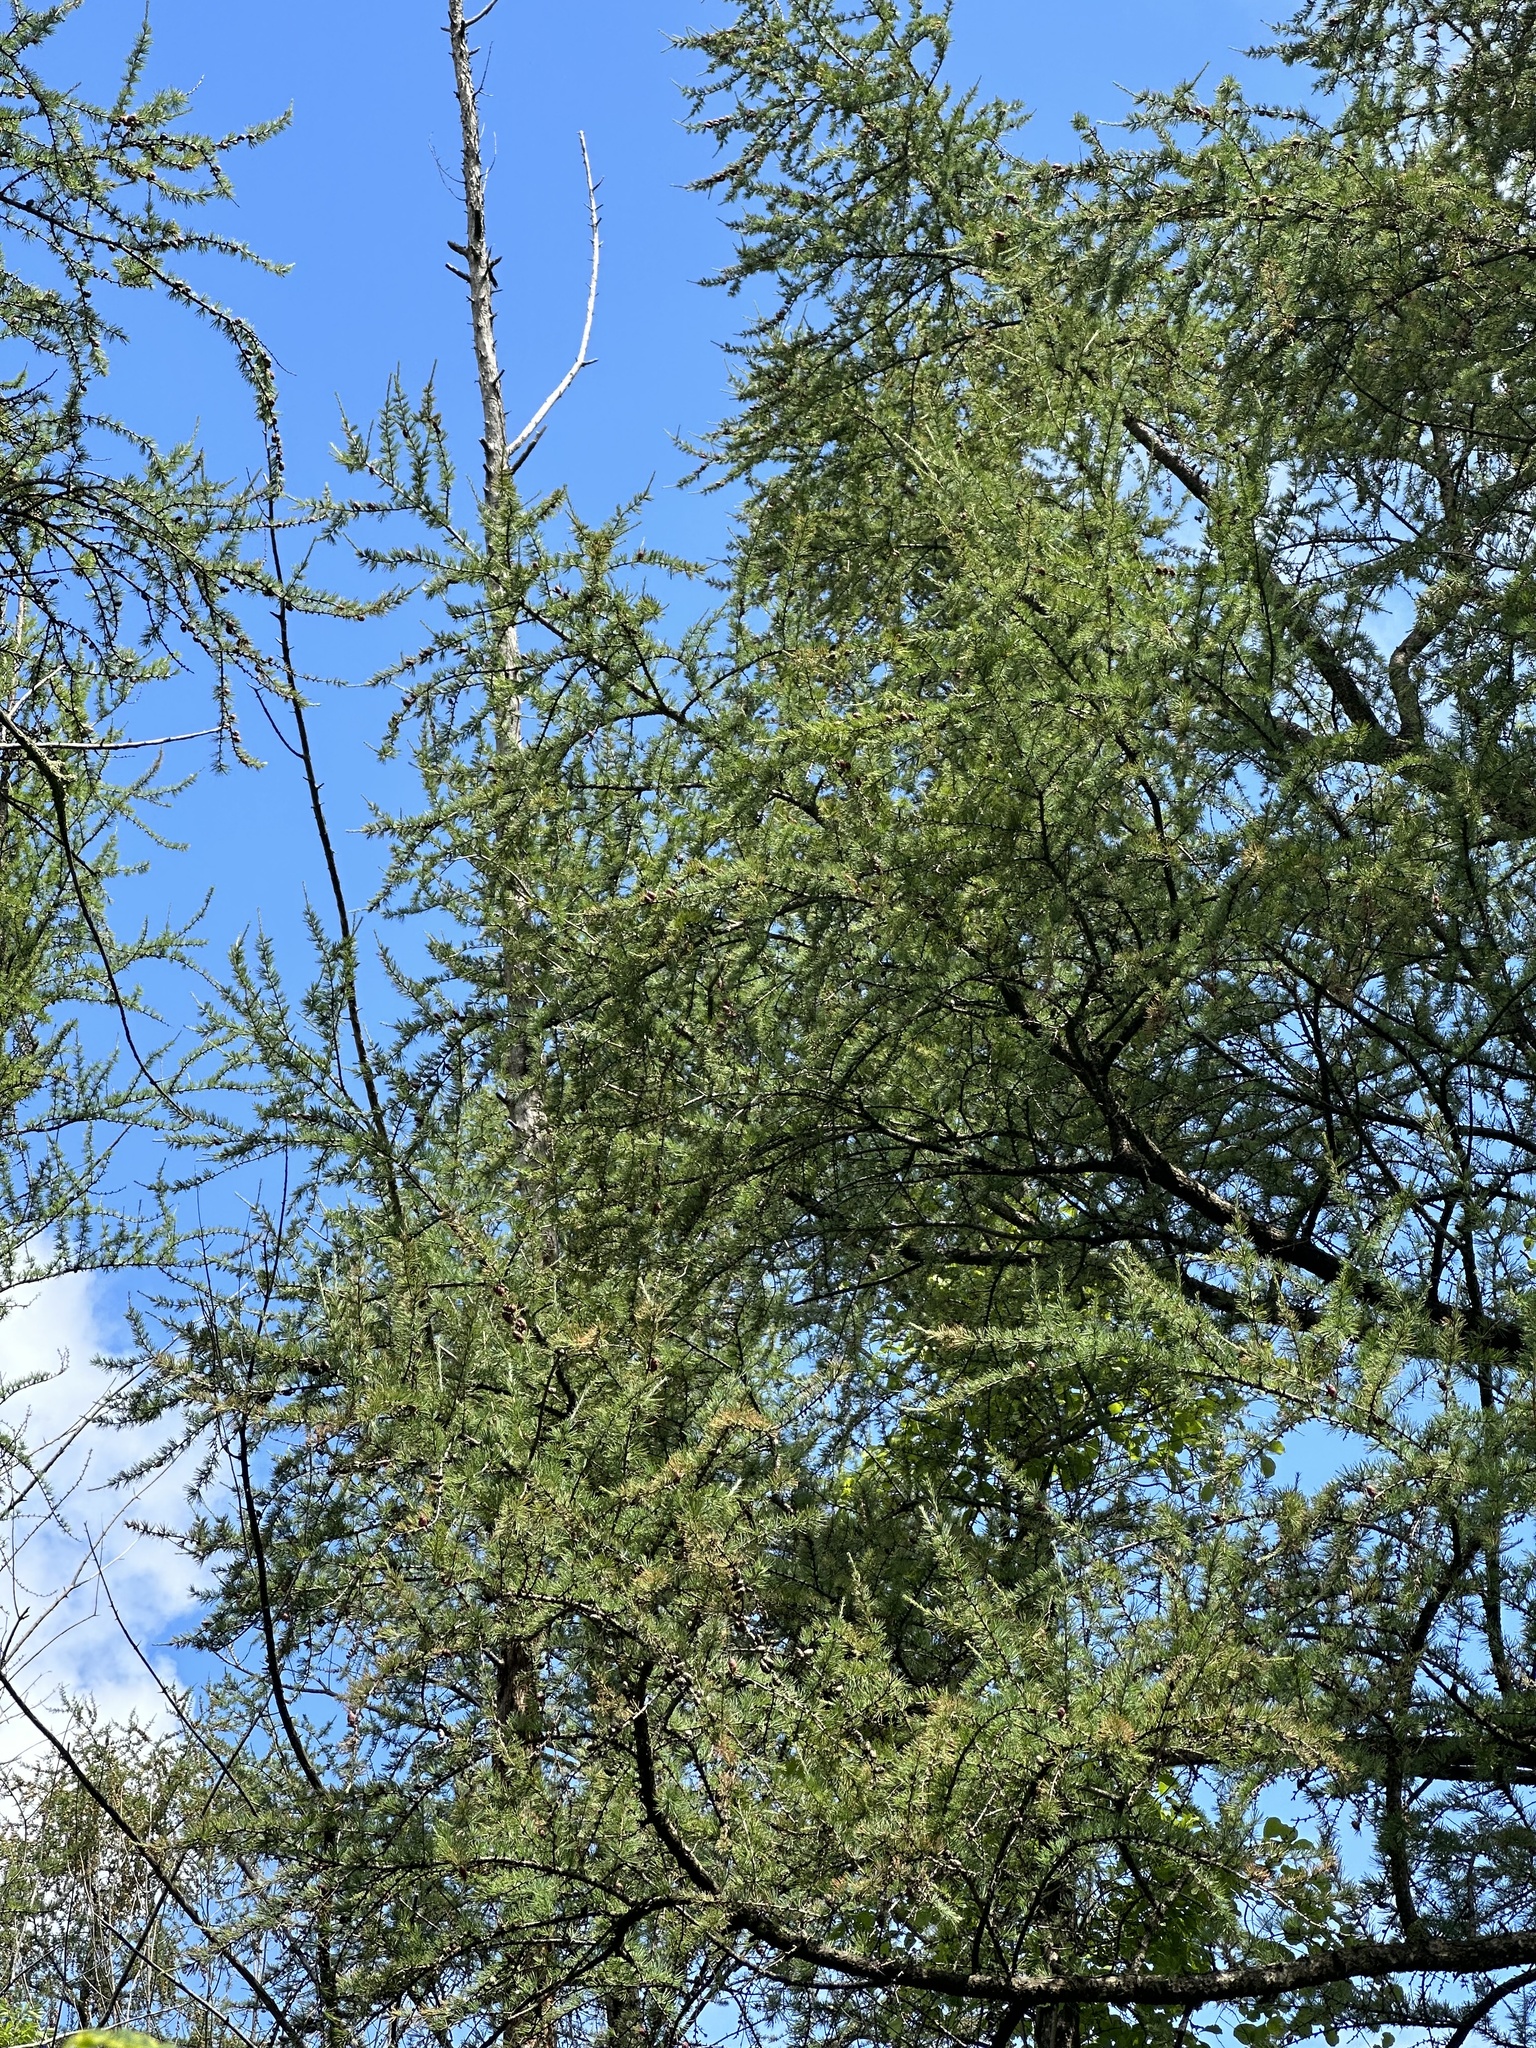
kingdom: Plantae
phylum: Tracheophyta
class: Pinopsida
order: Pinales
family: Pinaceae
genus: Larix
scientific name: Larix laricina
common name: American larch
